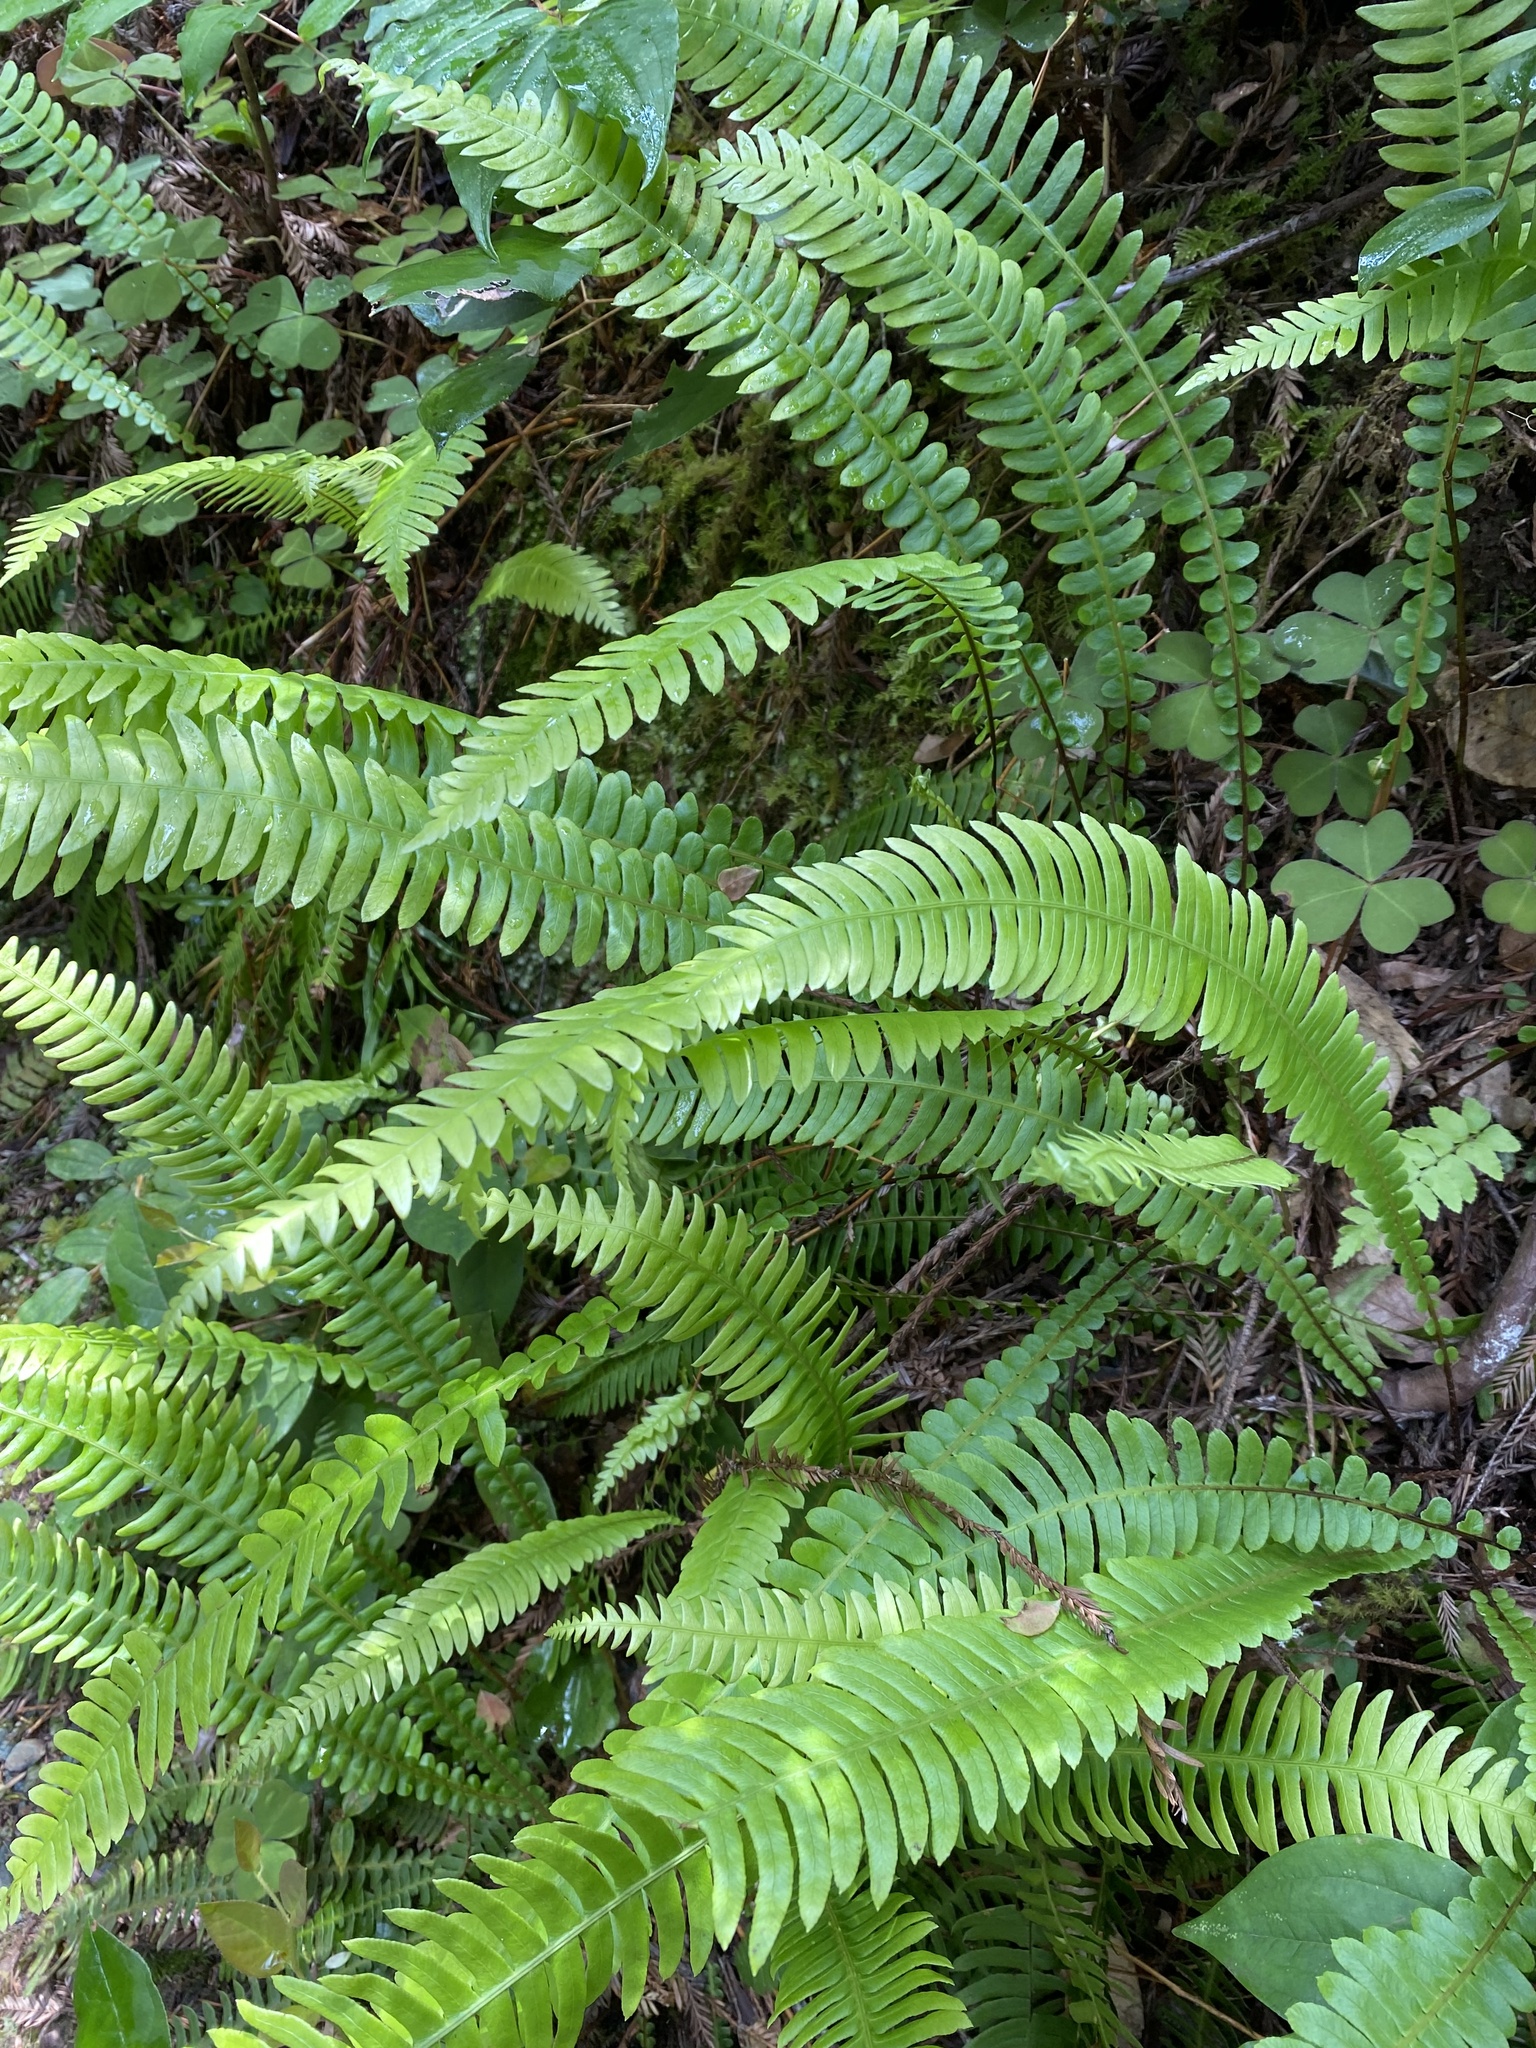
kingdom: Plantae
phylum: Tracheophyta
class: Polypodiopsida
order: Polypodiales
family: Blechnaceae
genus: Struthiopteris
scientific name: Struthiopteris spicant
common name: Deer fern
